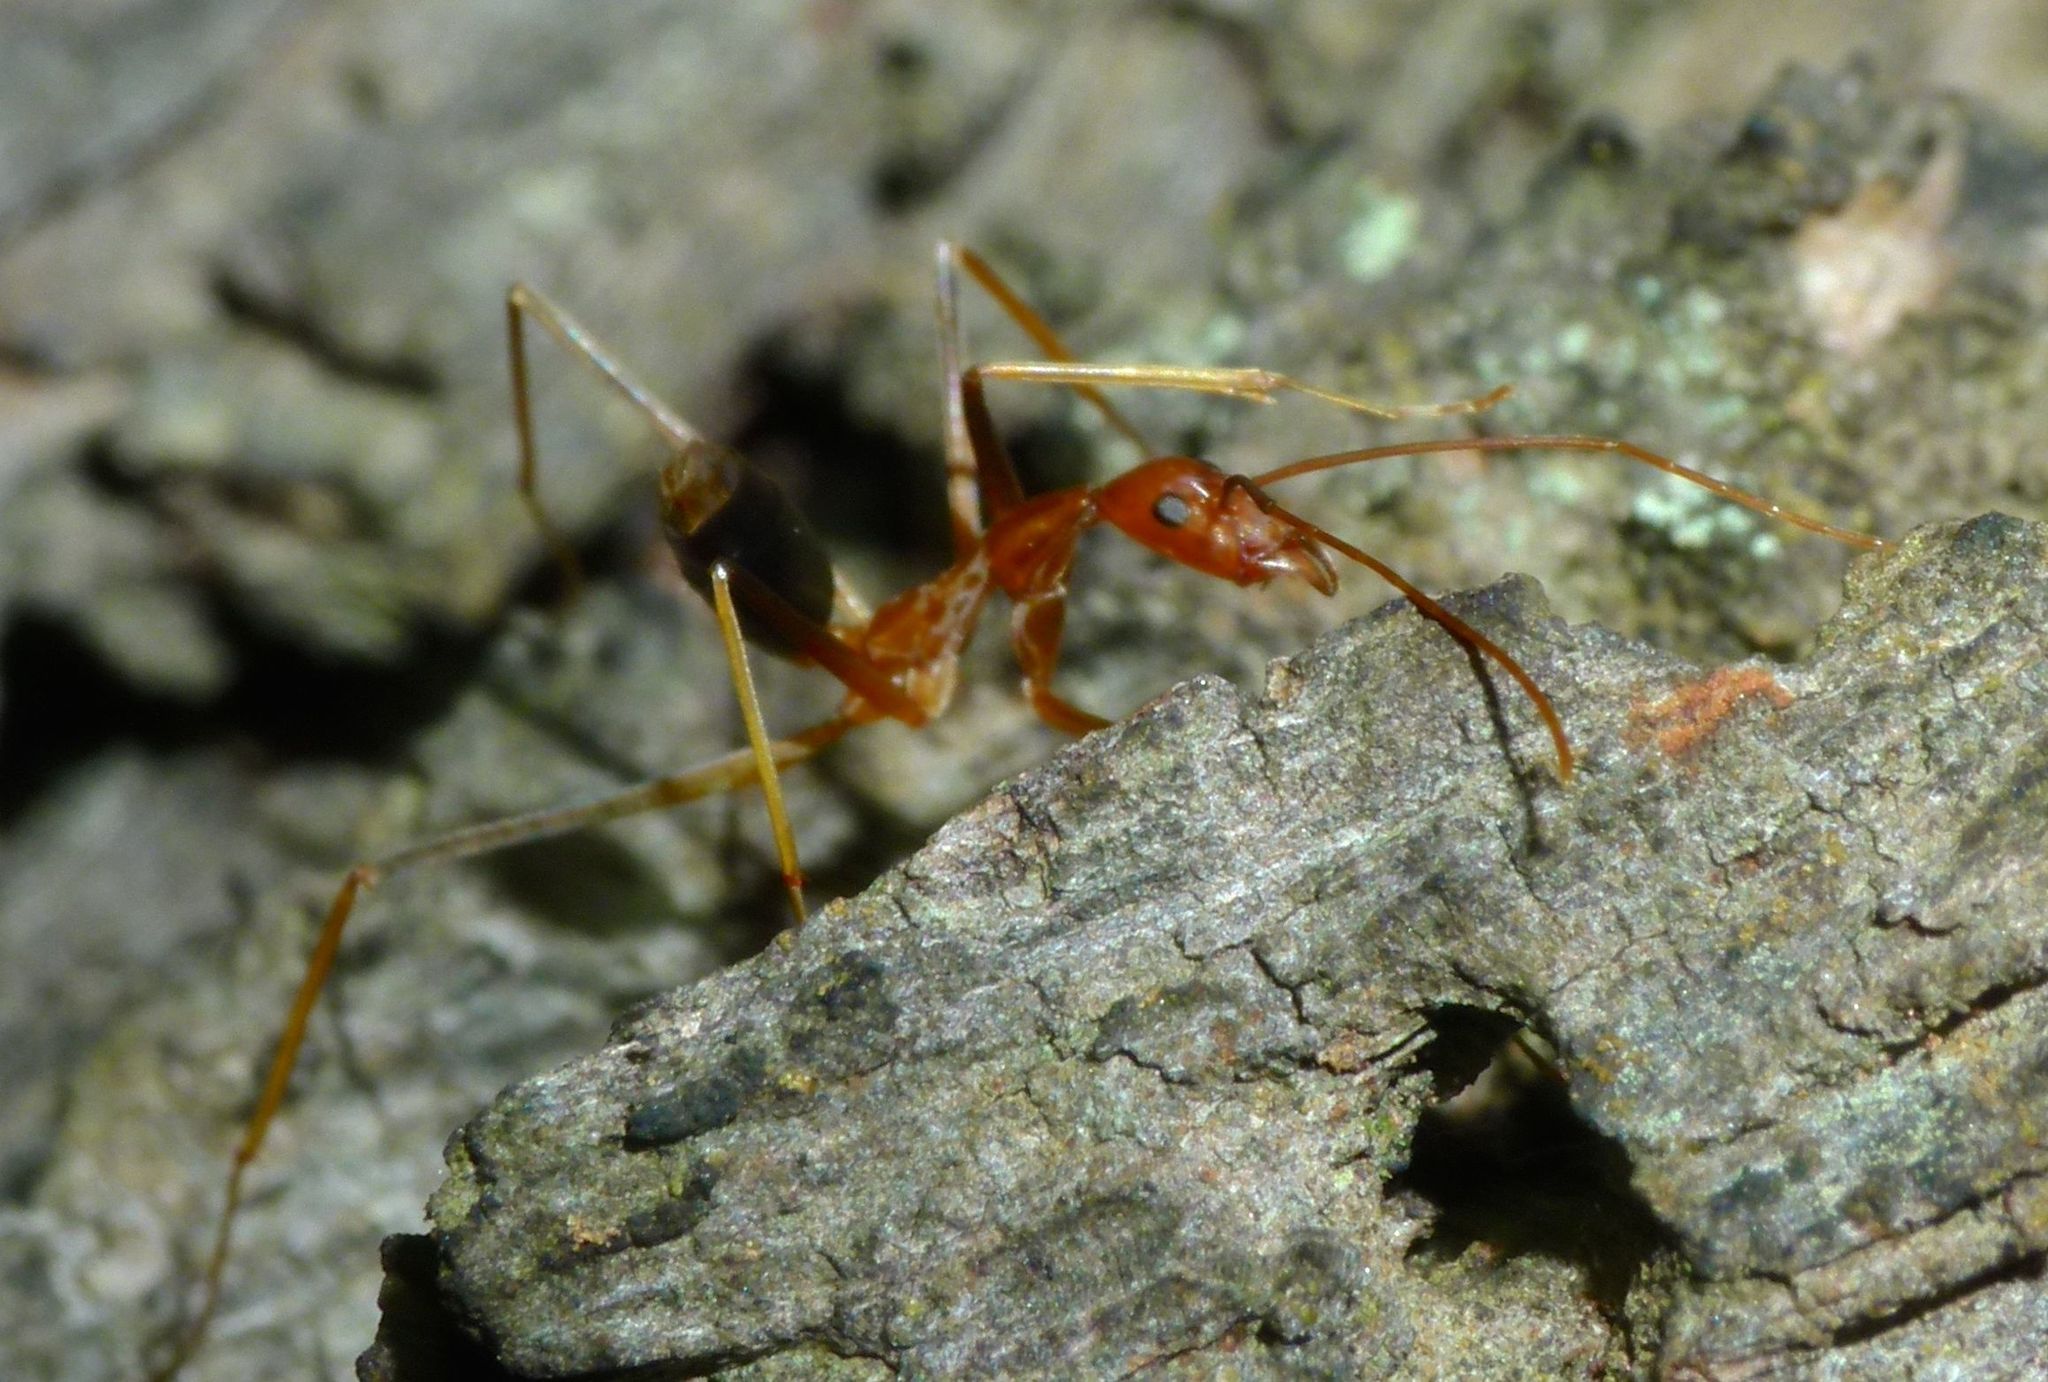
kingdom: Animalia
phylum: Arthropoda
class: Insecta
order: Hymenoptera
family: Formicidae
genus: Leptomyrmex
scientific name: Leptomyrmex rufipes
